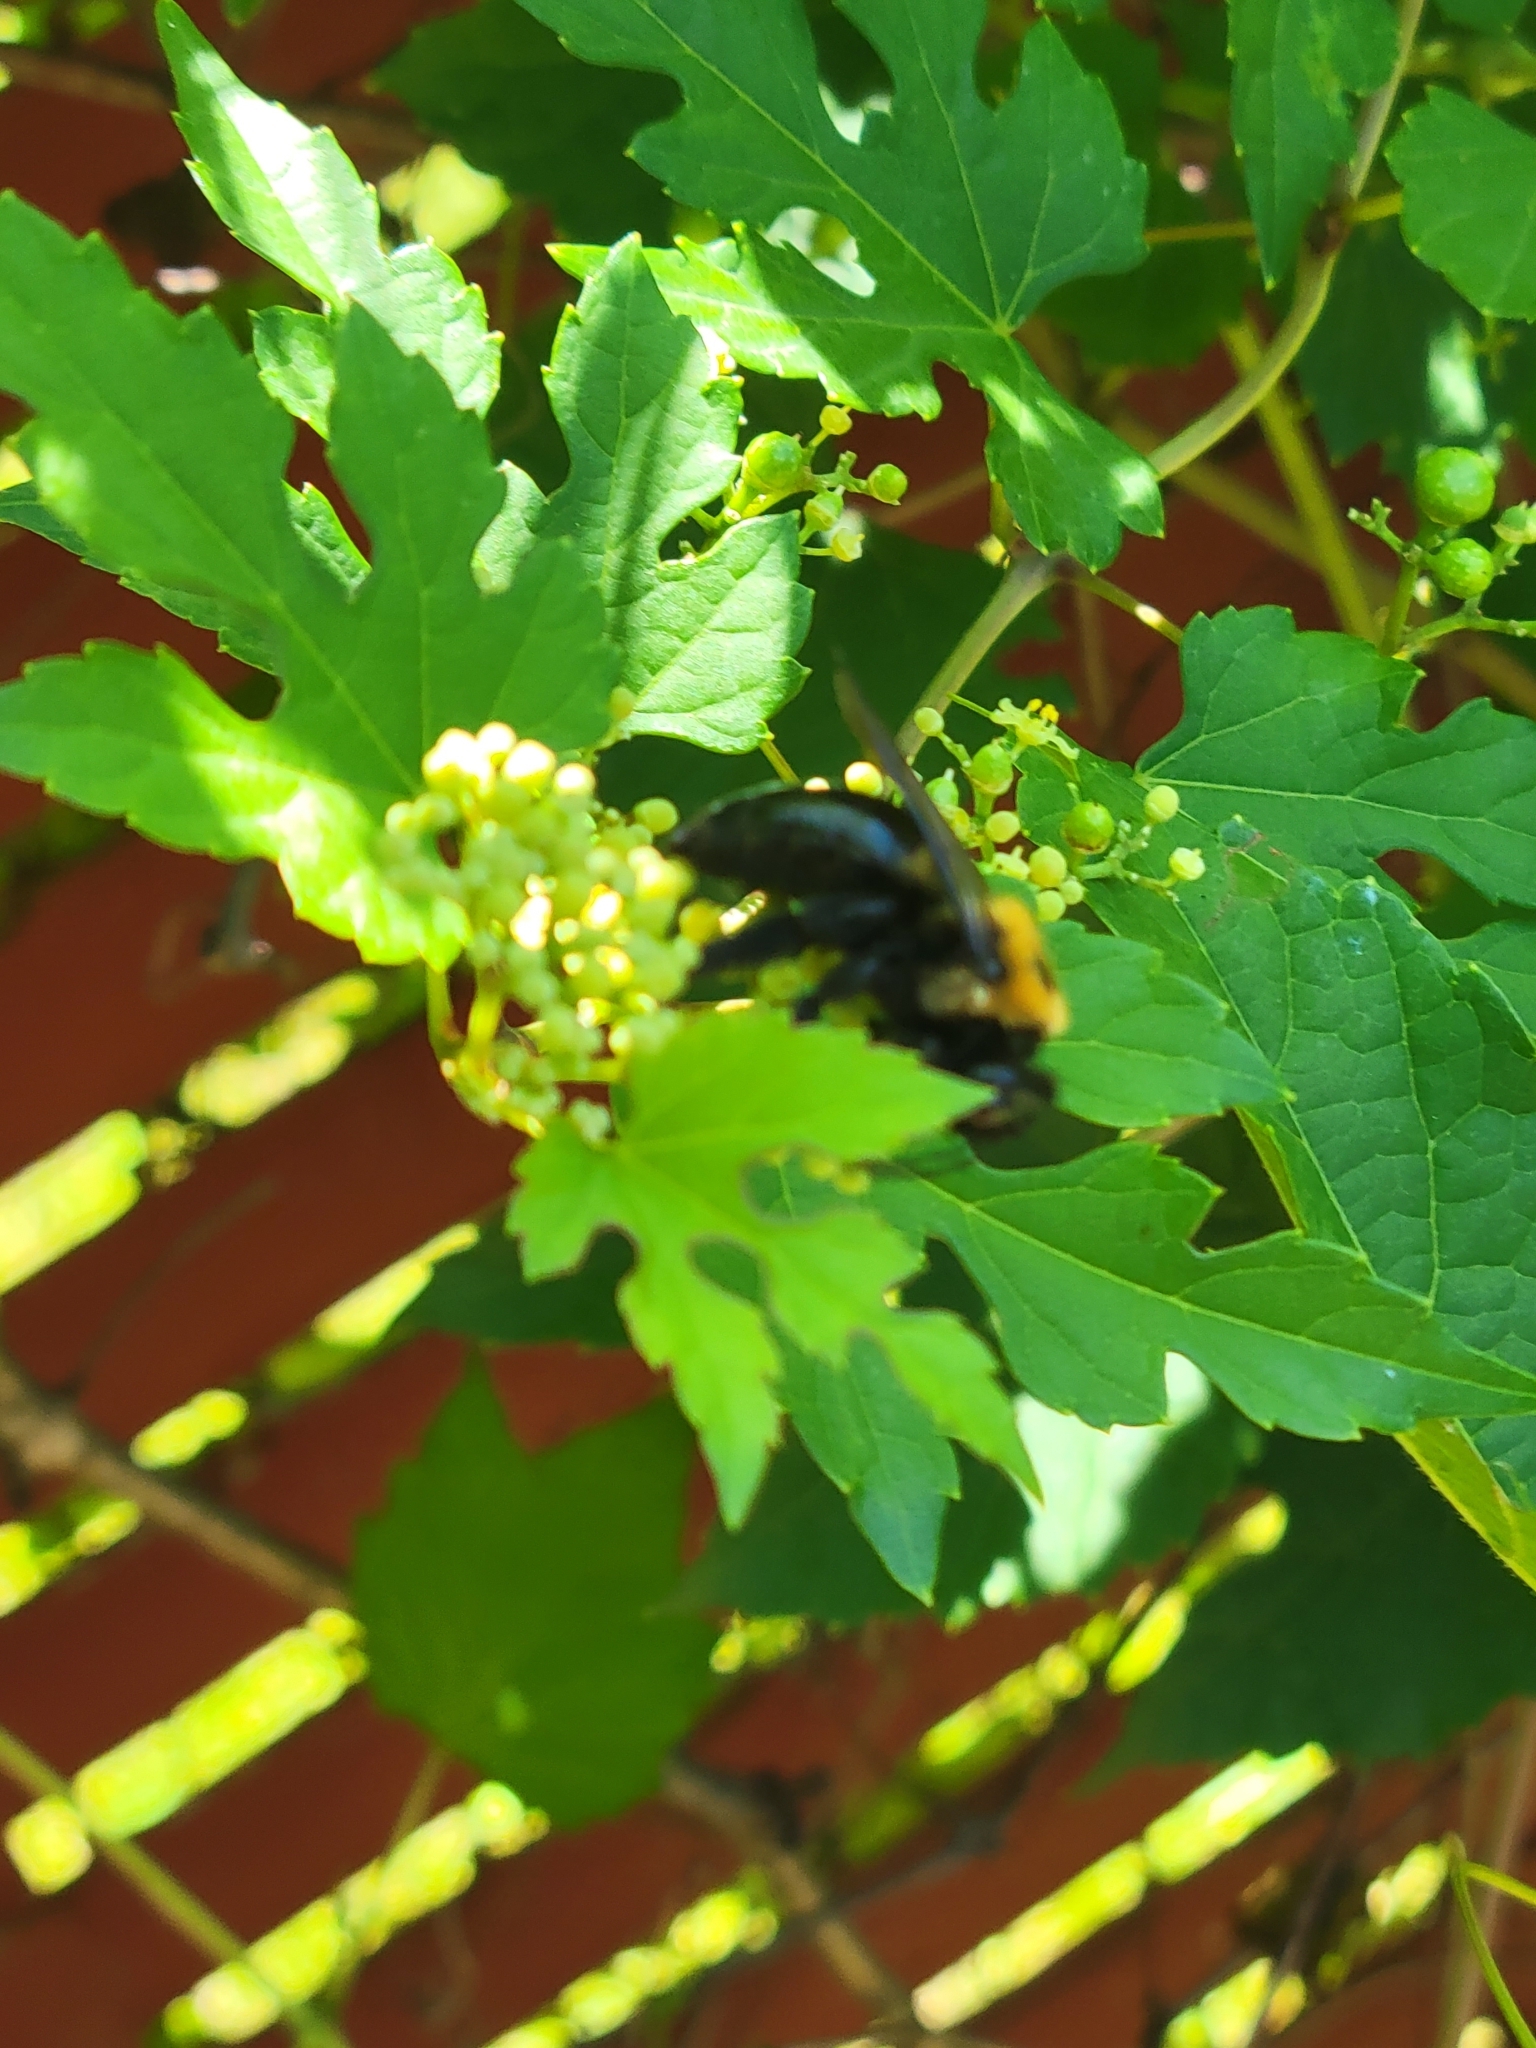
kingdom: Animalia
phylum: Arthropoda
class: Insecta
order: Hymenoptera
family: Apidae
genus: Xylocopa
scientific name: Xylocopa virginica
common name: Carpenter bee
